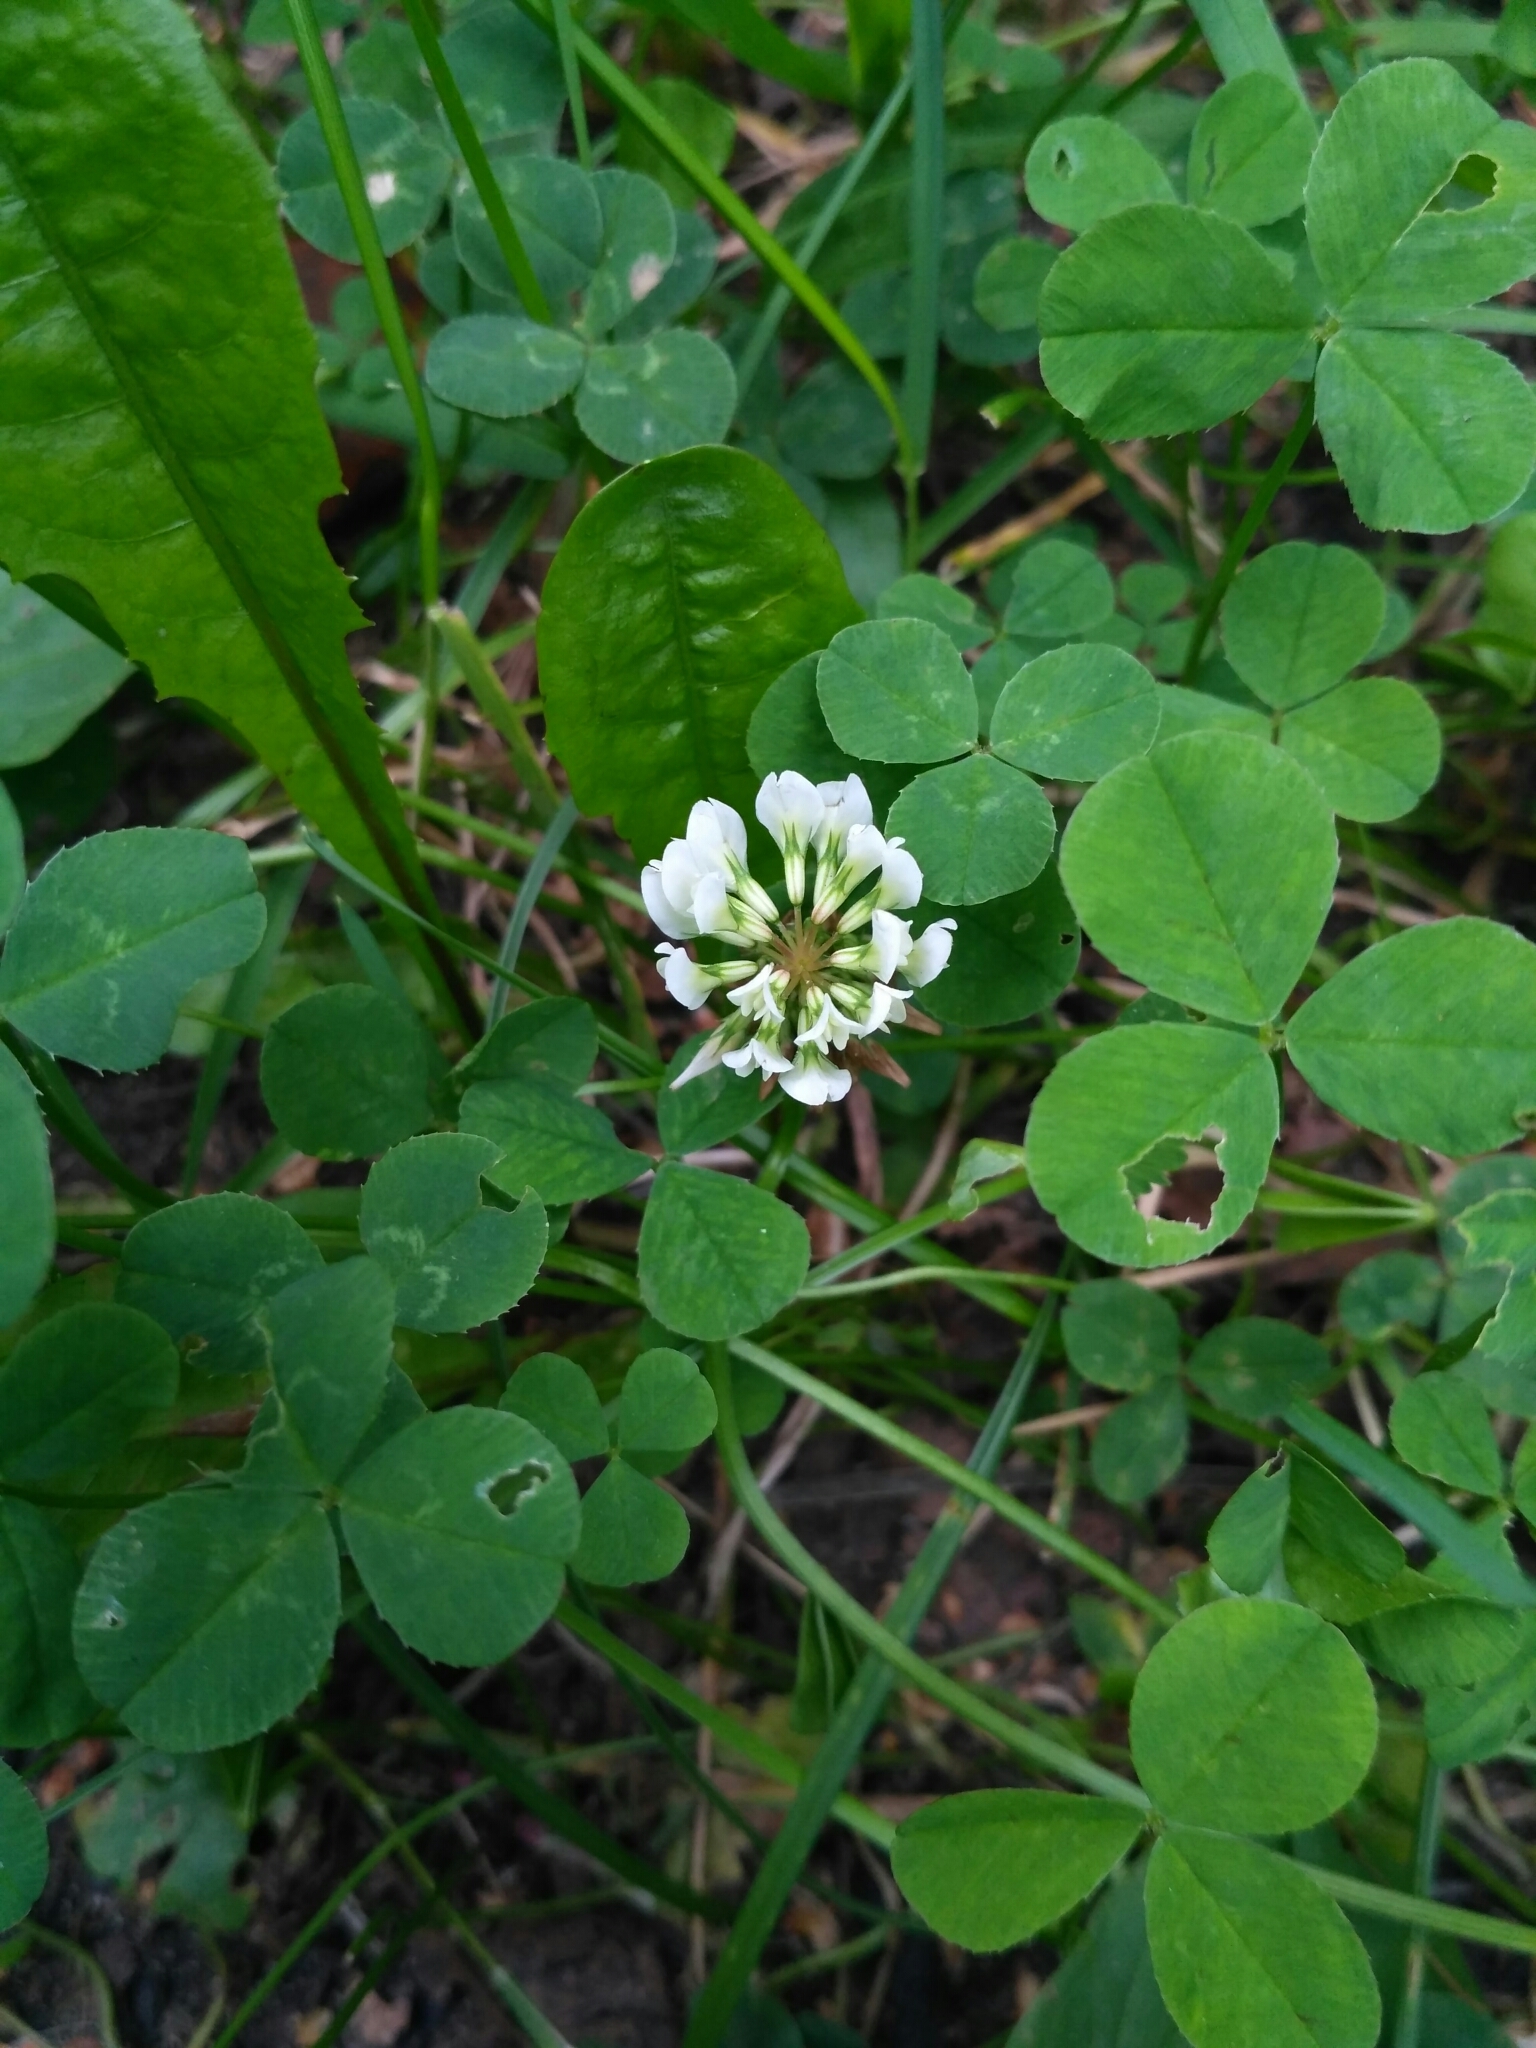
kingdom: Plantae
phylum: Tracheophyta
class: Magnoliopsida
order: Fabales
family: Fabaceae
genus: Trifolium
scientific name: Trifolium repens
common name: White clover
